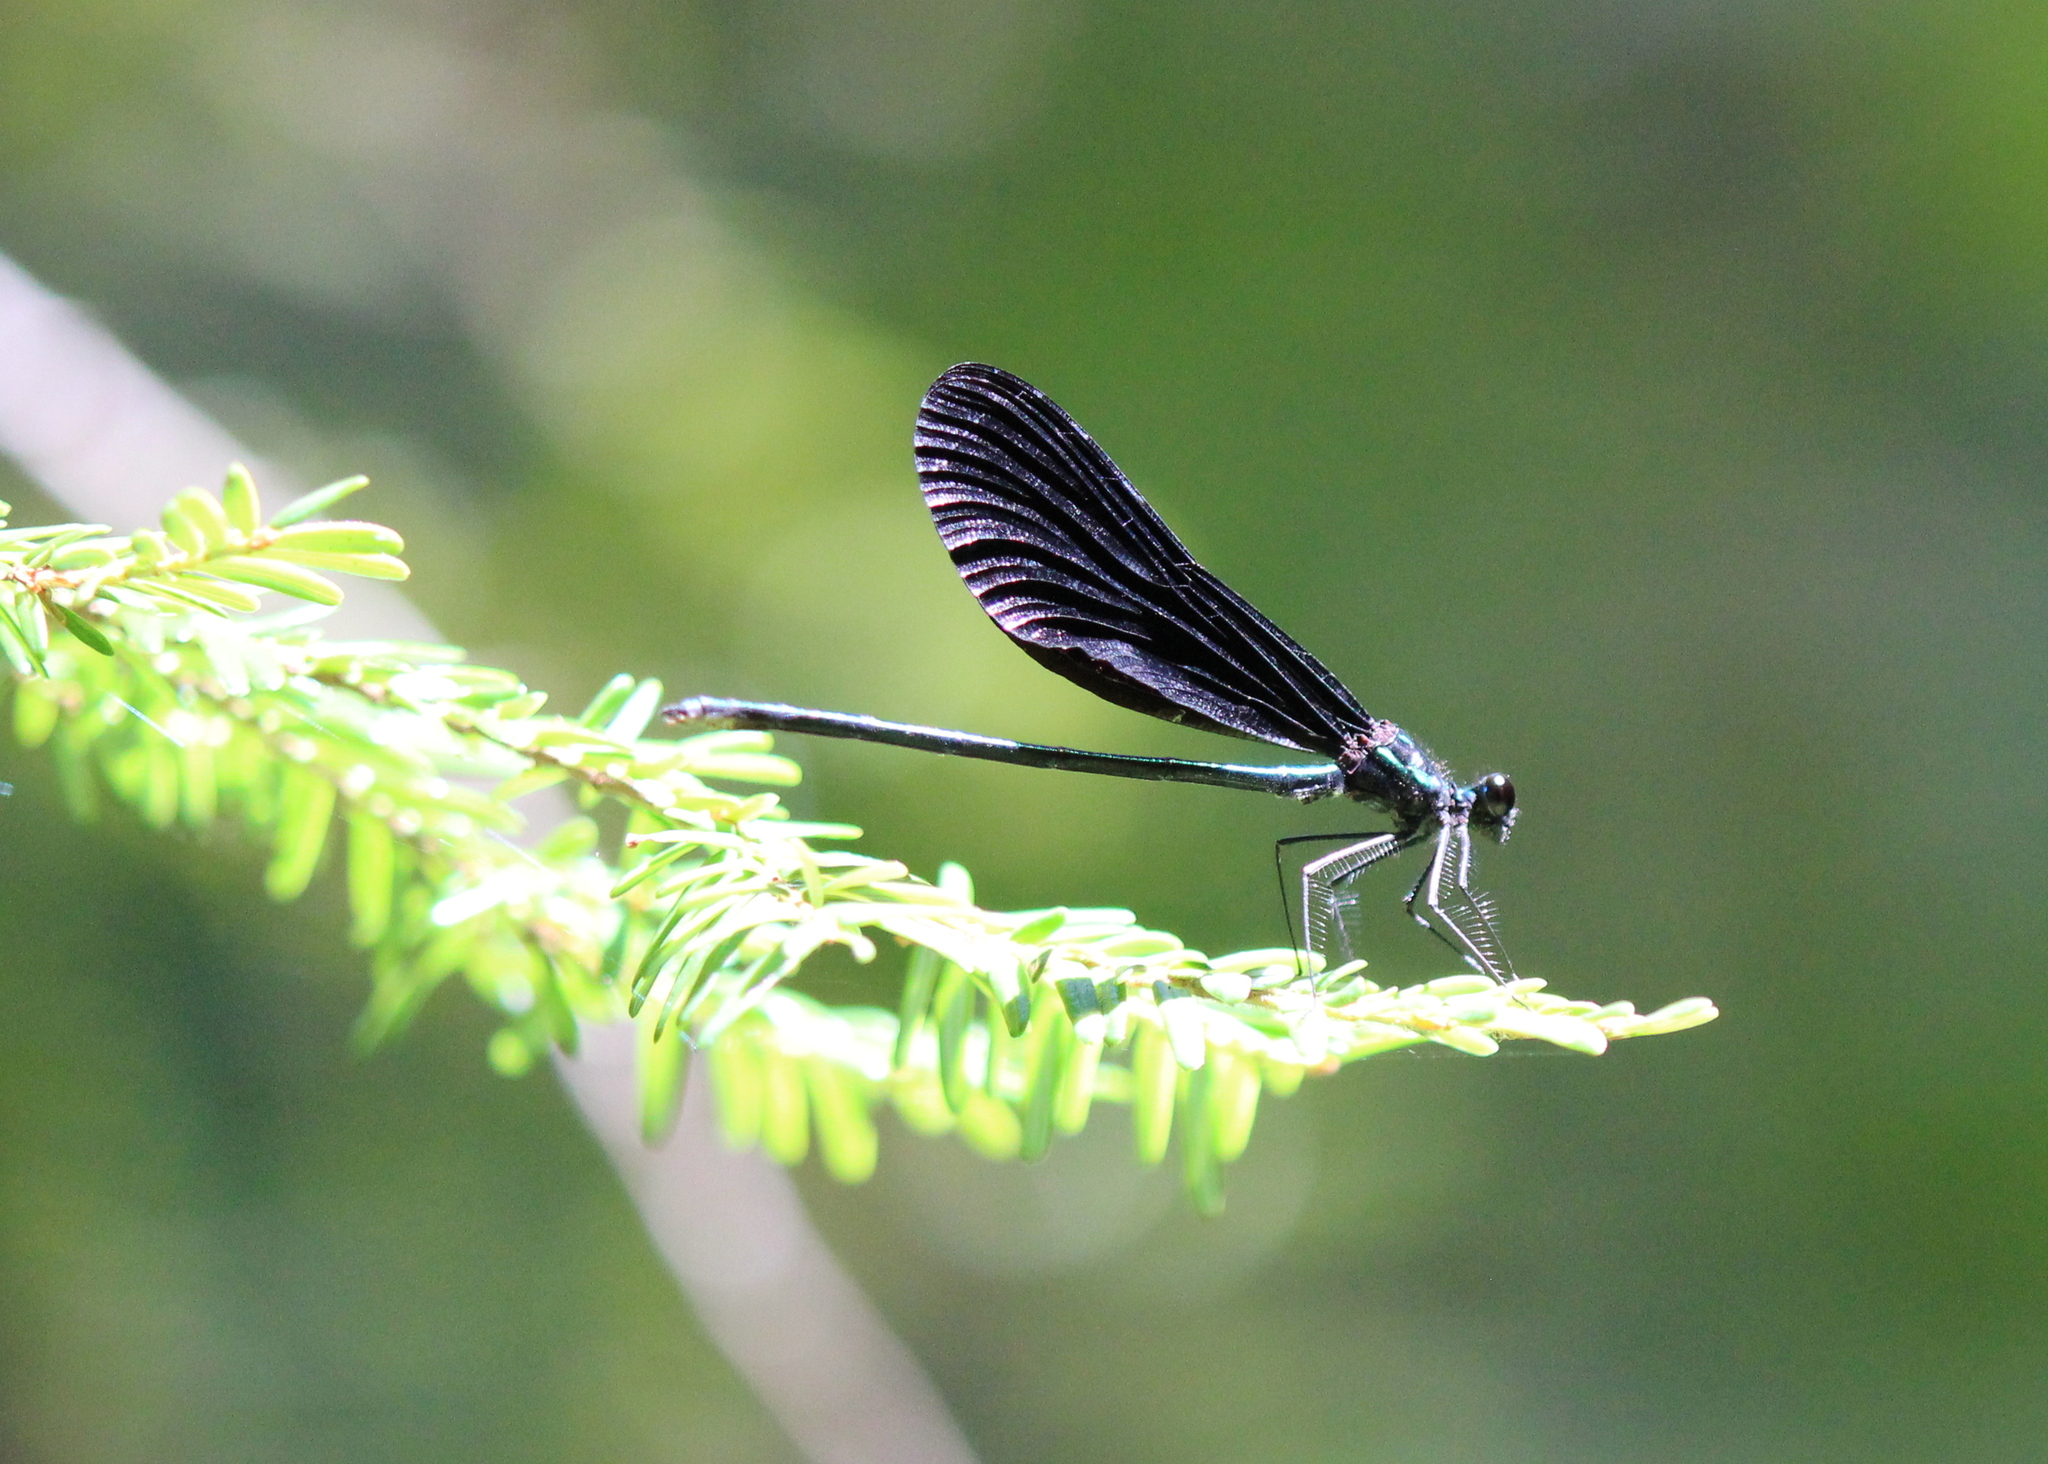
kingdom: Animalia
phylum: Arthropoda
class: Insecta
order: Odonata
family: Calopterygidae
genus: Calopteryx
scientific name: Calopteryx maculata
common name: Ebony jewelwing
